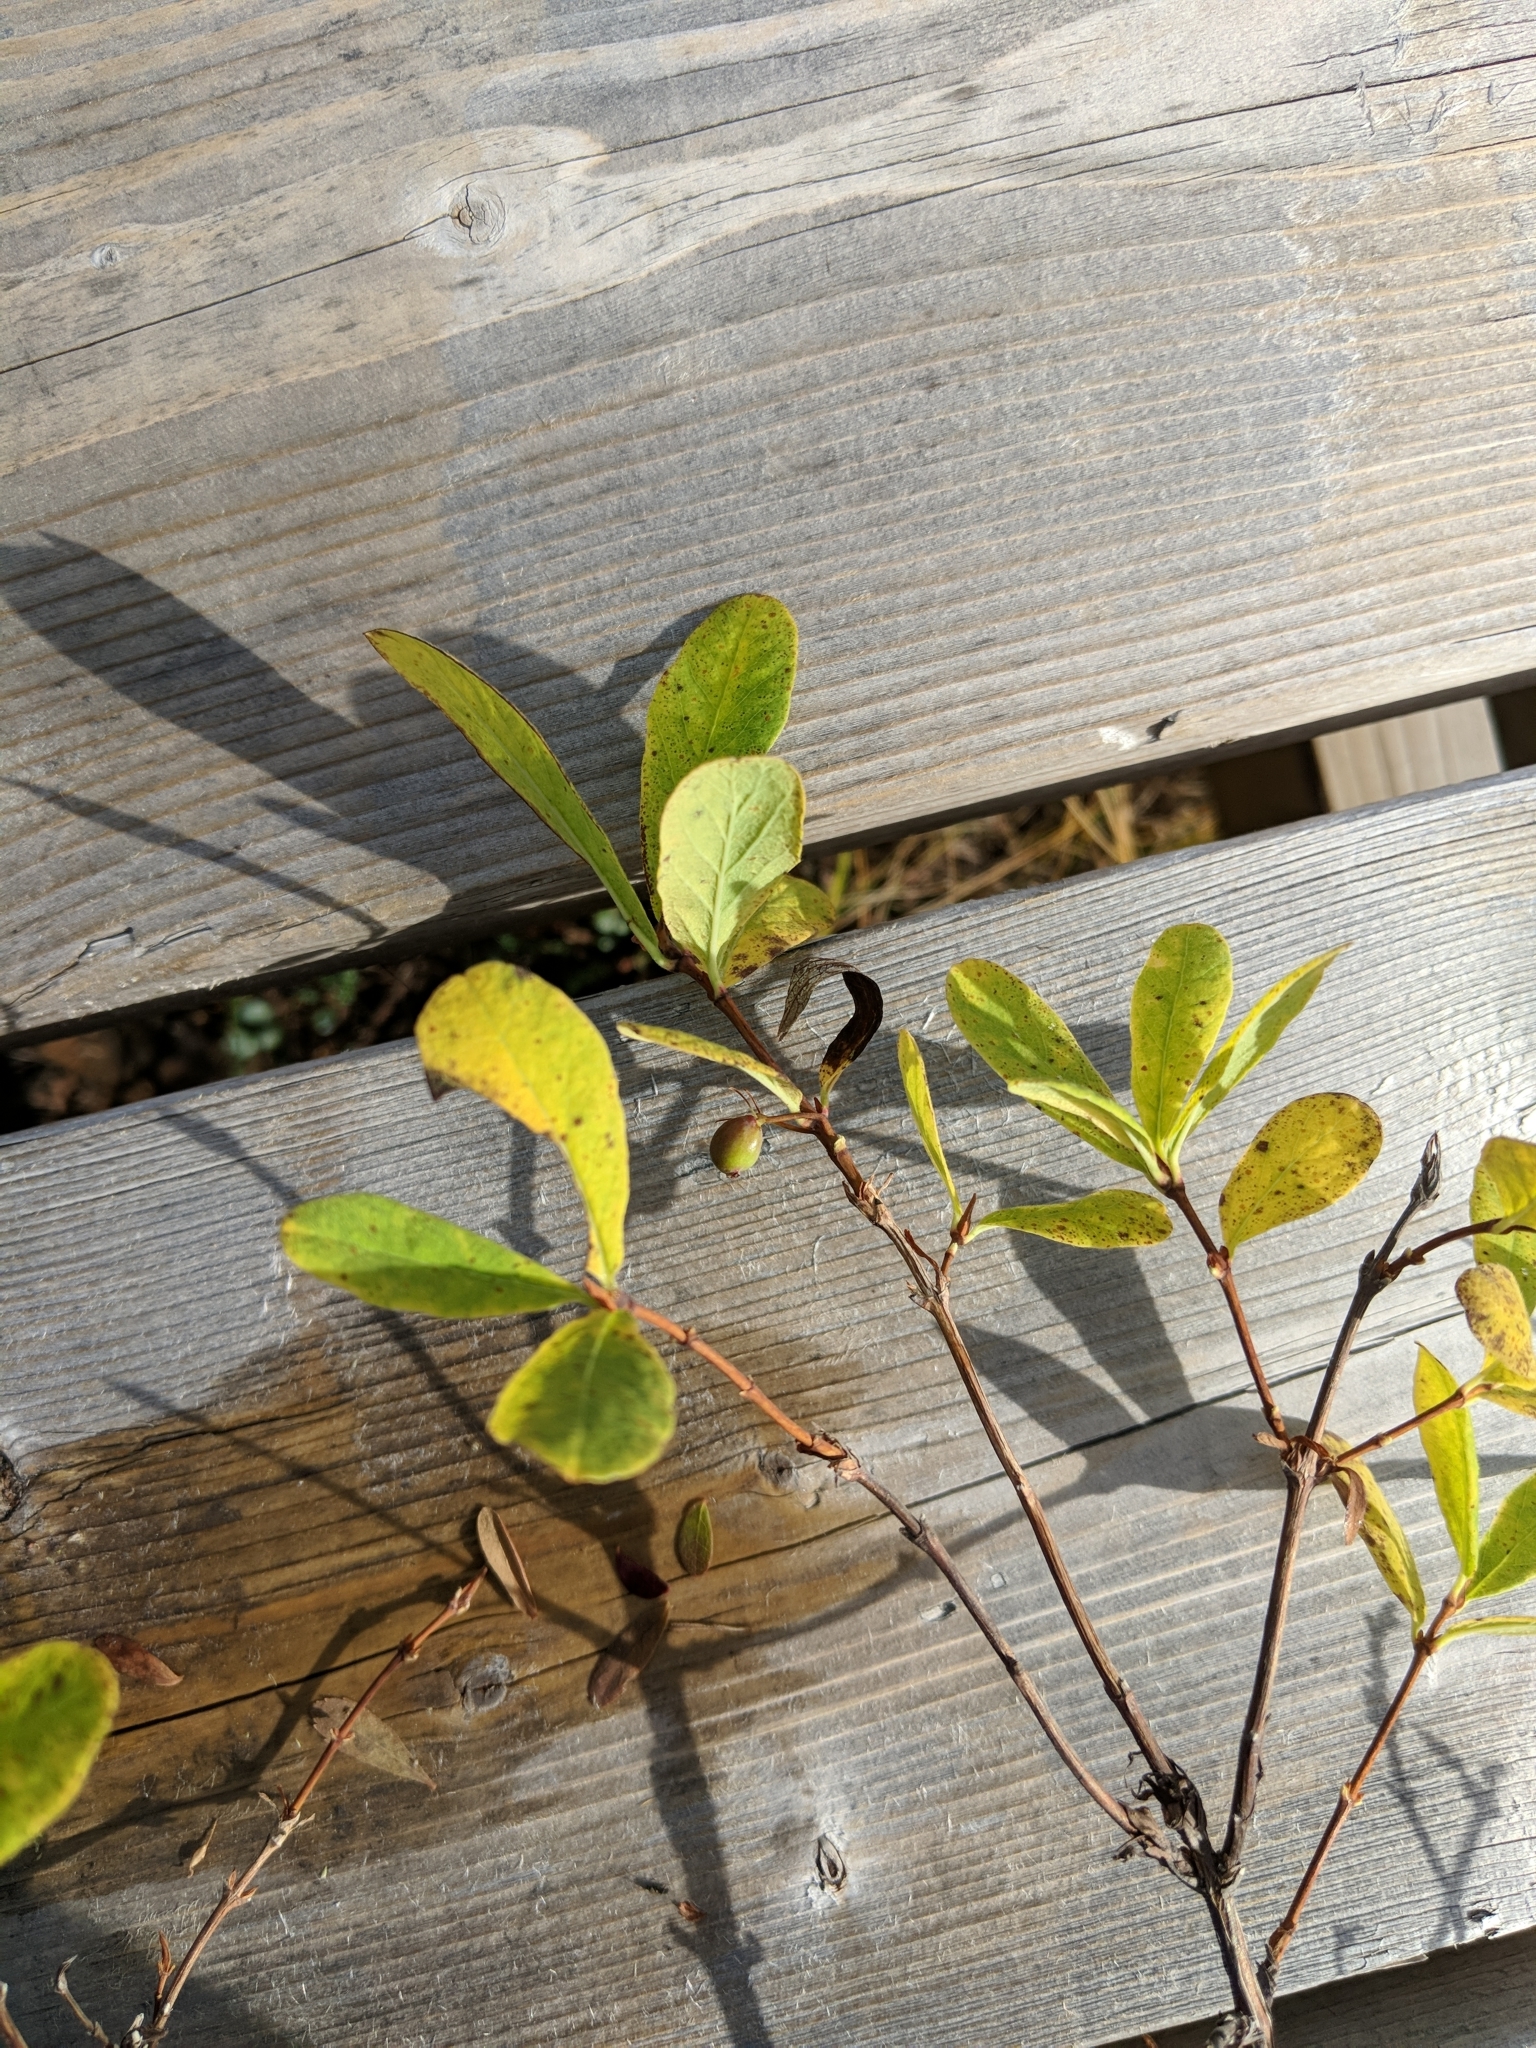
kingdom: Plantae
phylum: Tracheophyta
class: Magnoliopsida
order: Dipsacales
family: Caprifoliaceae
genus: Lonicera
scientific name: Lonicera villosa
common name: Mountain fly-honeysuckle
